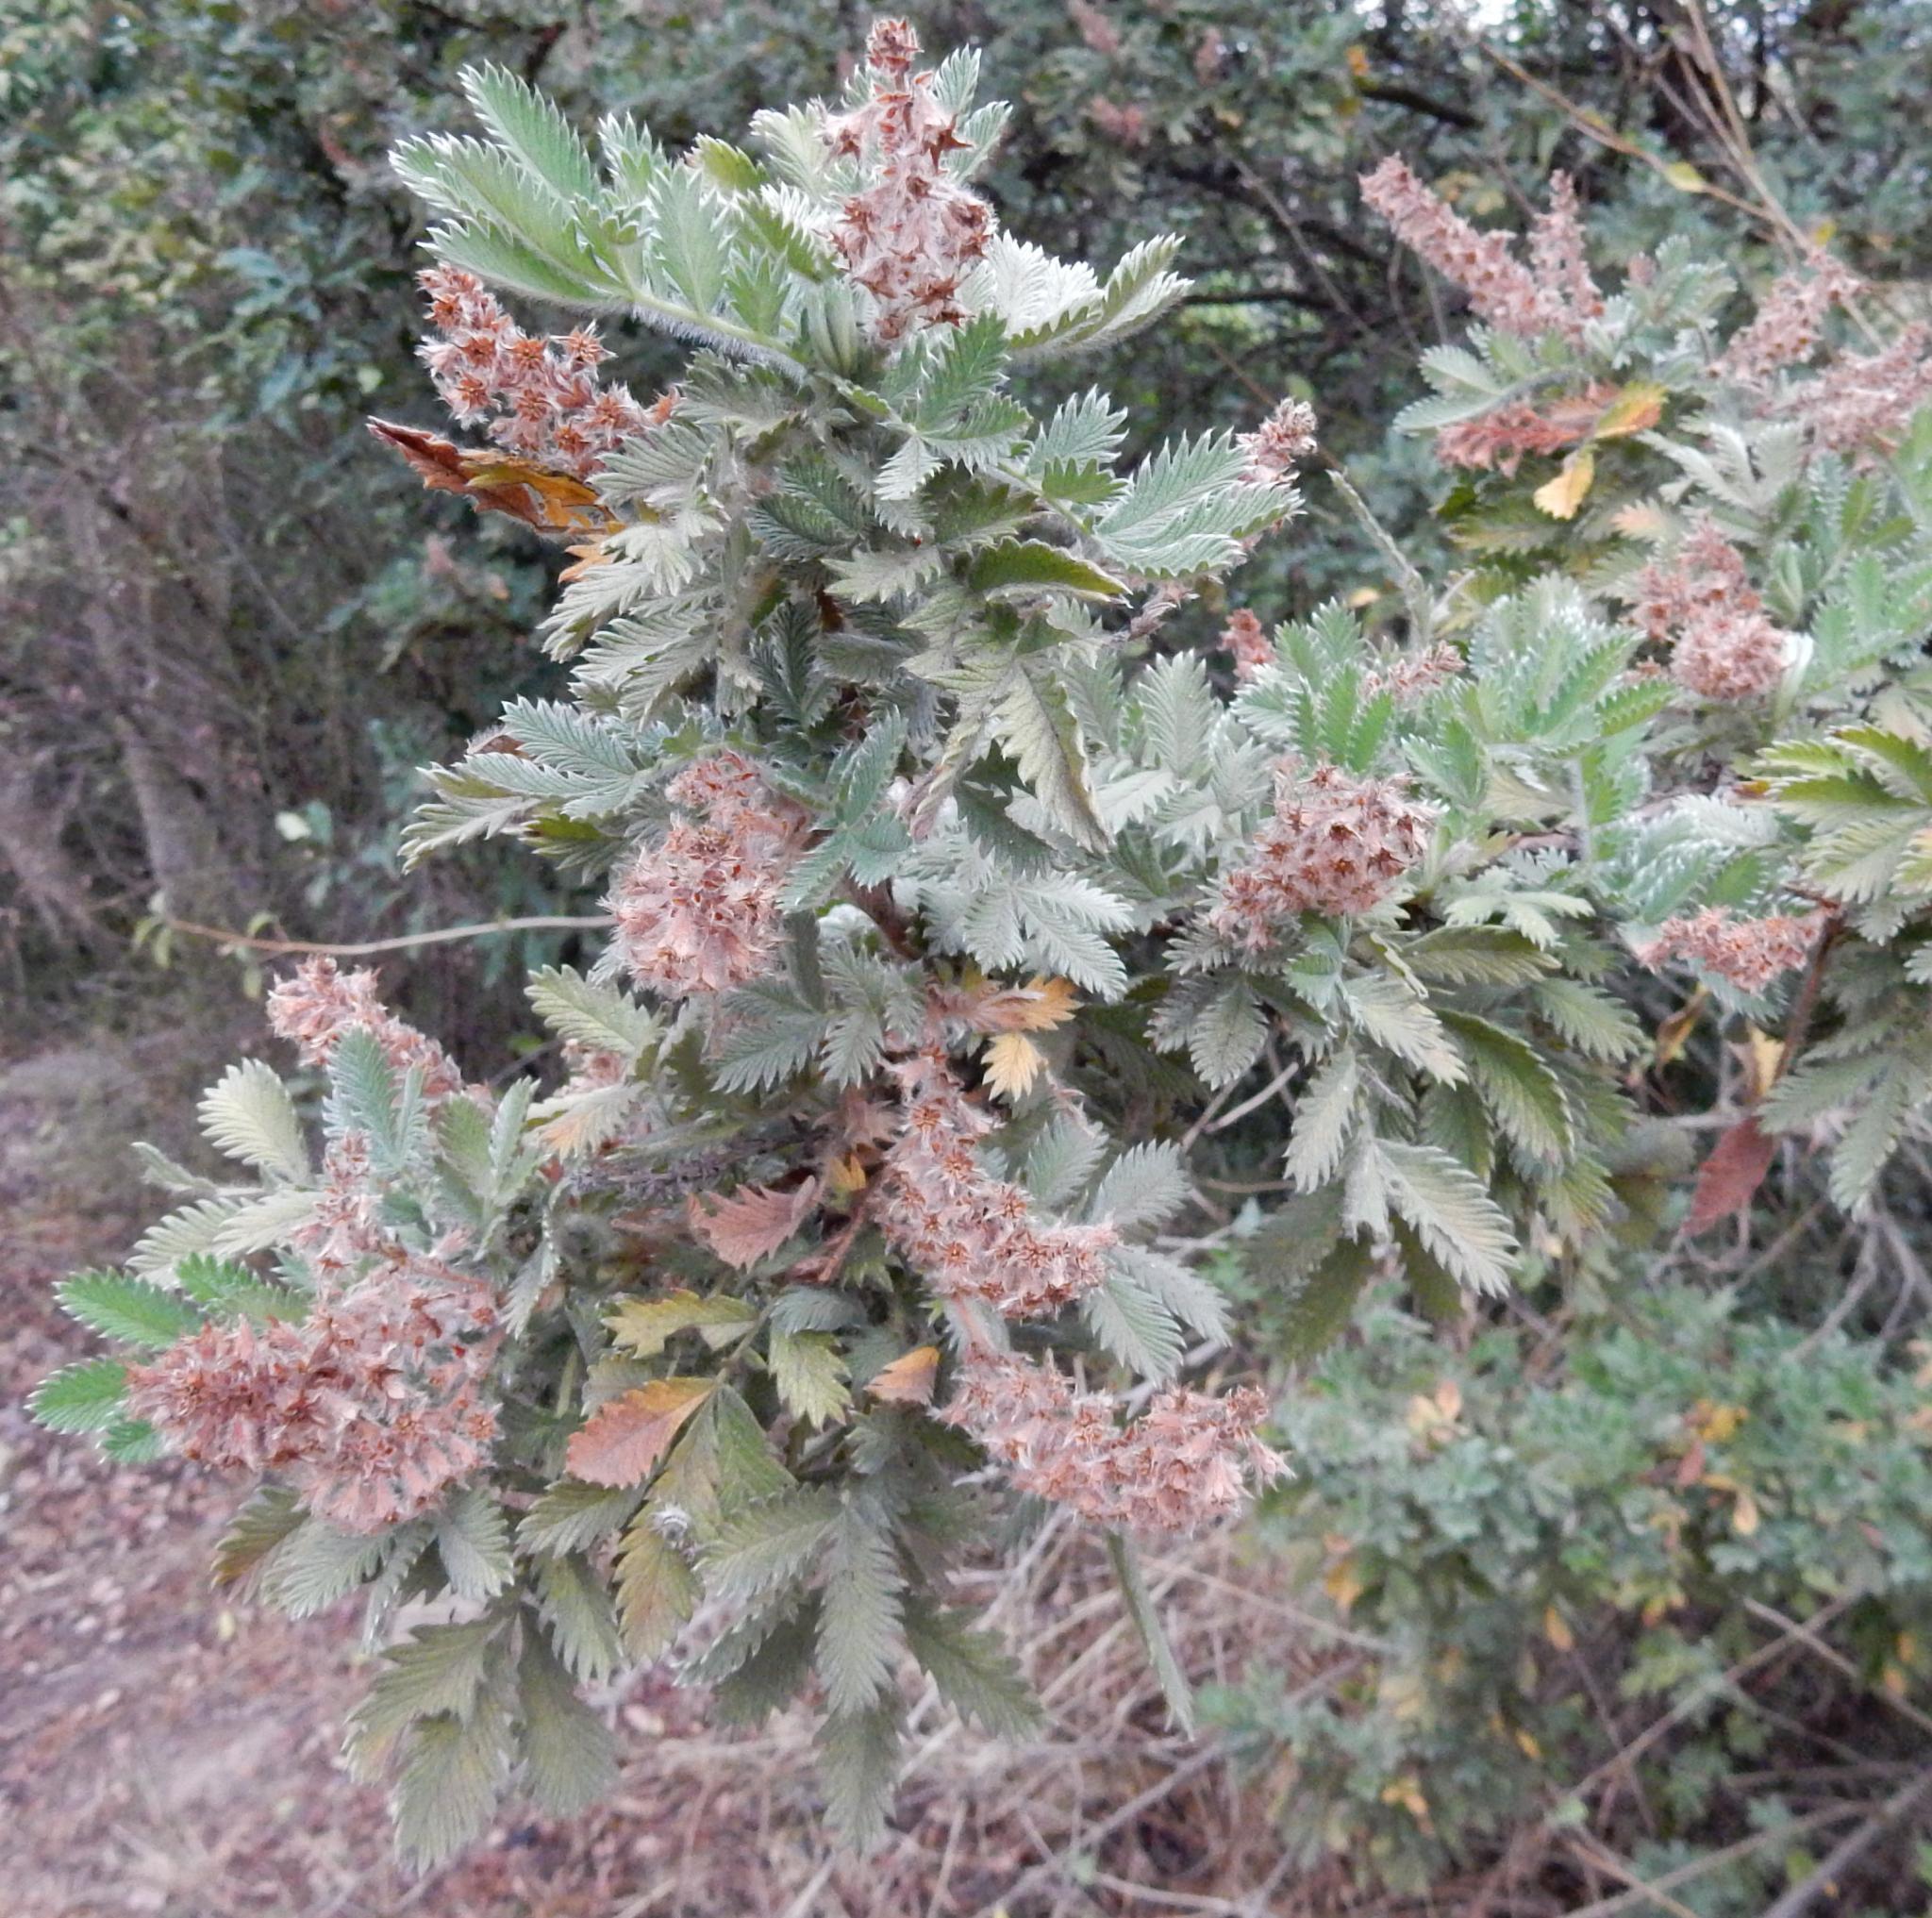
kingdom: Plantae
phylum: Tracheophyta
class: Magnoliopsida
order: Rosales
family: Rosaceae
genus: Leucosidea
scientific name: Leucosidea sericea
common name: Oldwood
